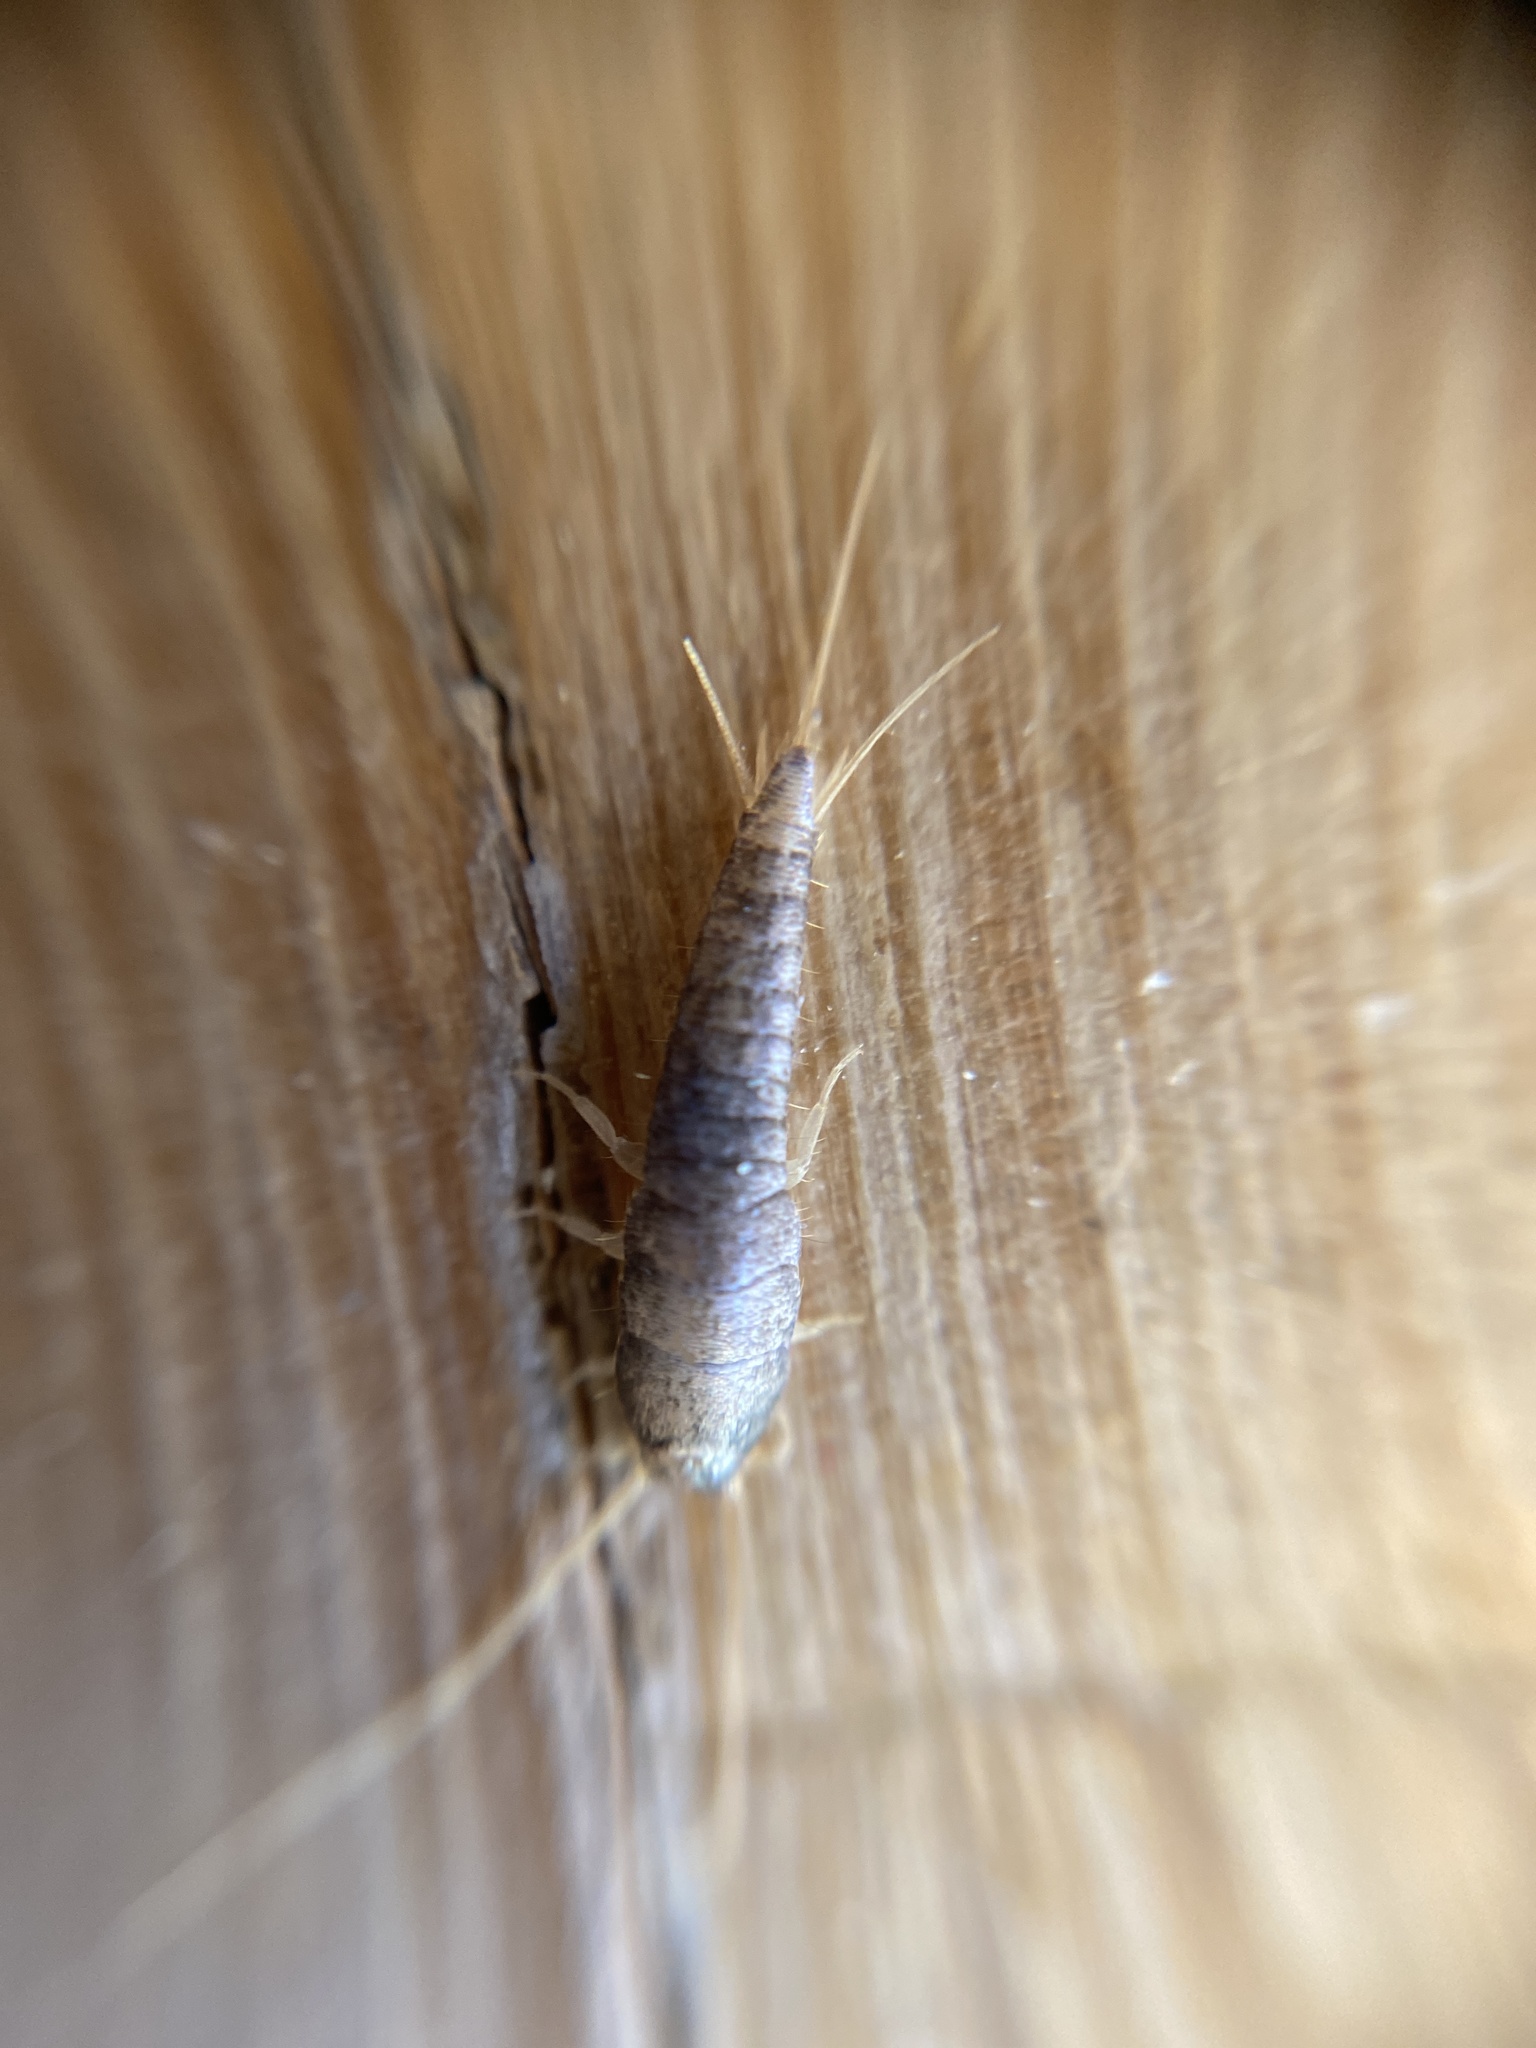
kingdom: Animalia
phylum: Arthropoda
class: Insecta
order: Zygentoma
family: Lepismatidae
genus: Lepisma
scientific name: Lepisma saccharinum
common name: Silverfish
